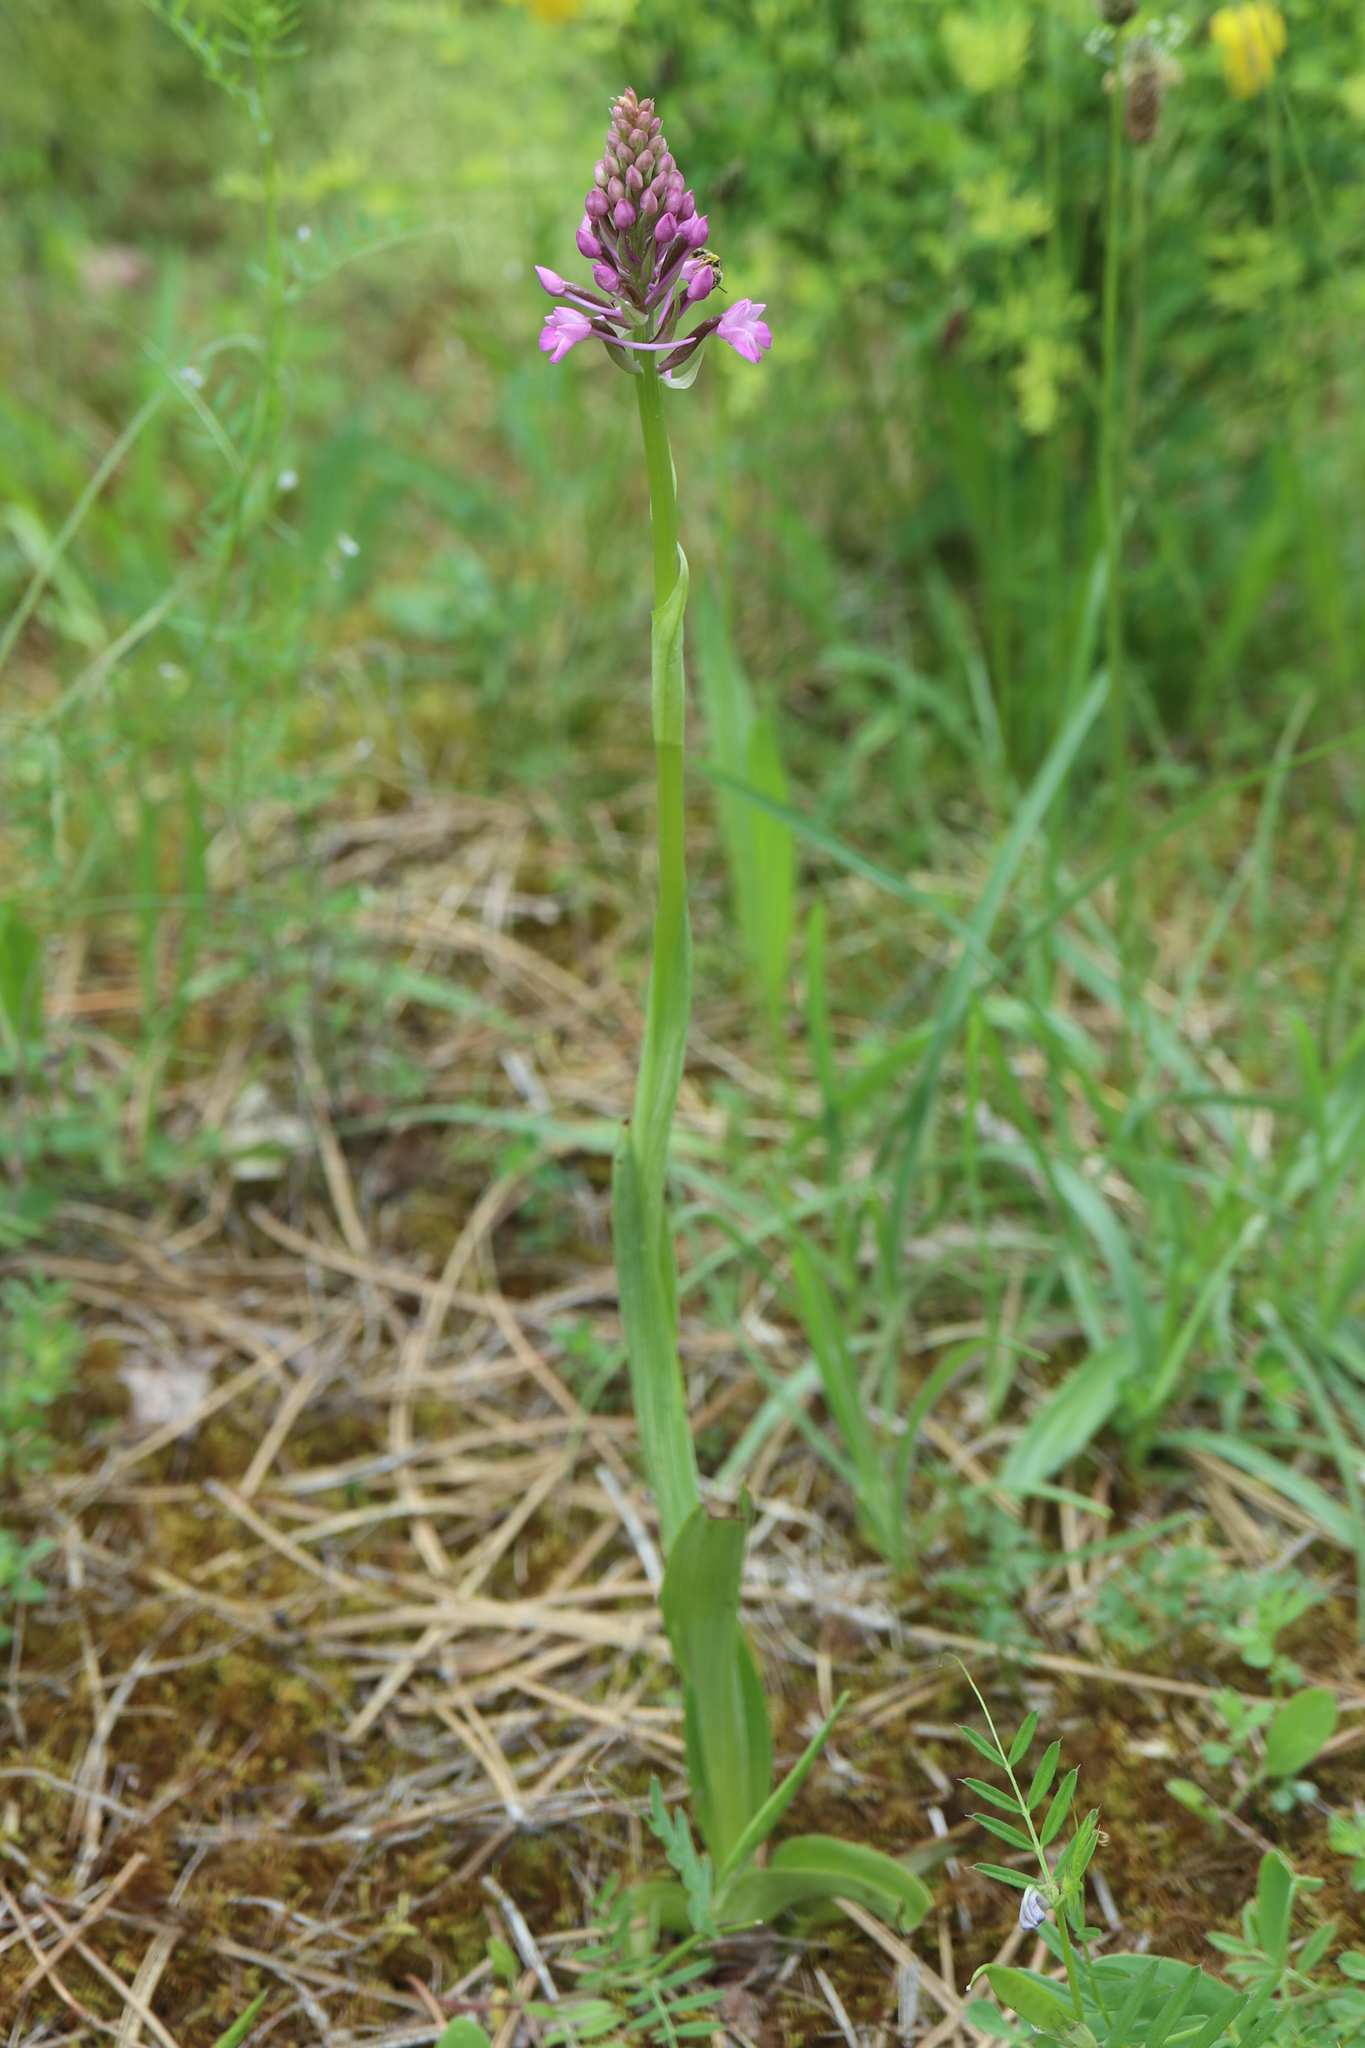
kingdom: Plantae
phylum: Tracheophyta
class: Liliopsida
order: Asparagales
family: Orchidaceae
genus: Anacamptis
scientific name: Anacamptis pyramidalis
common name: Pyramidal orchid
